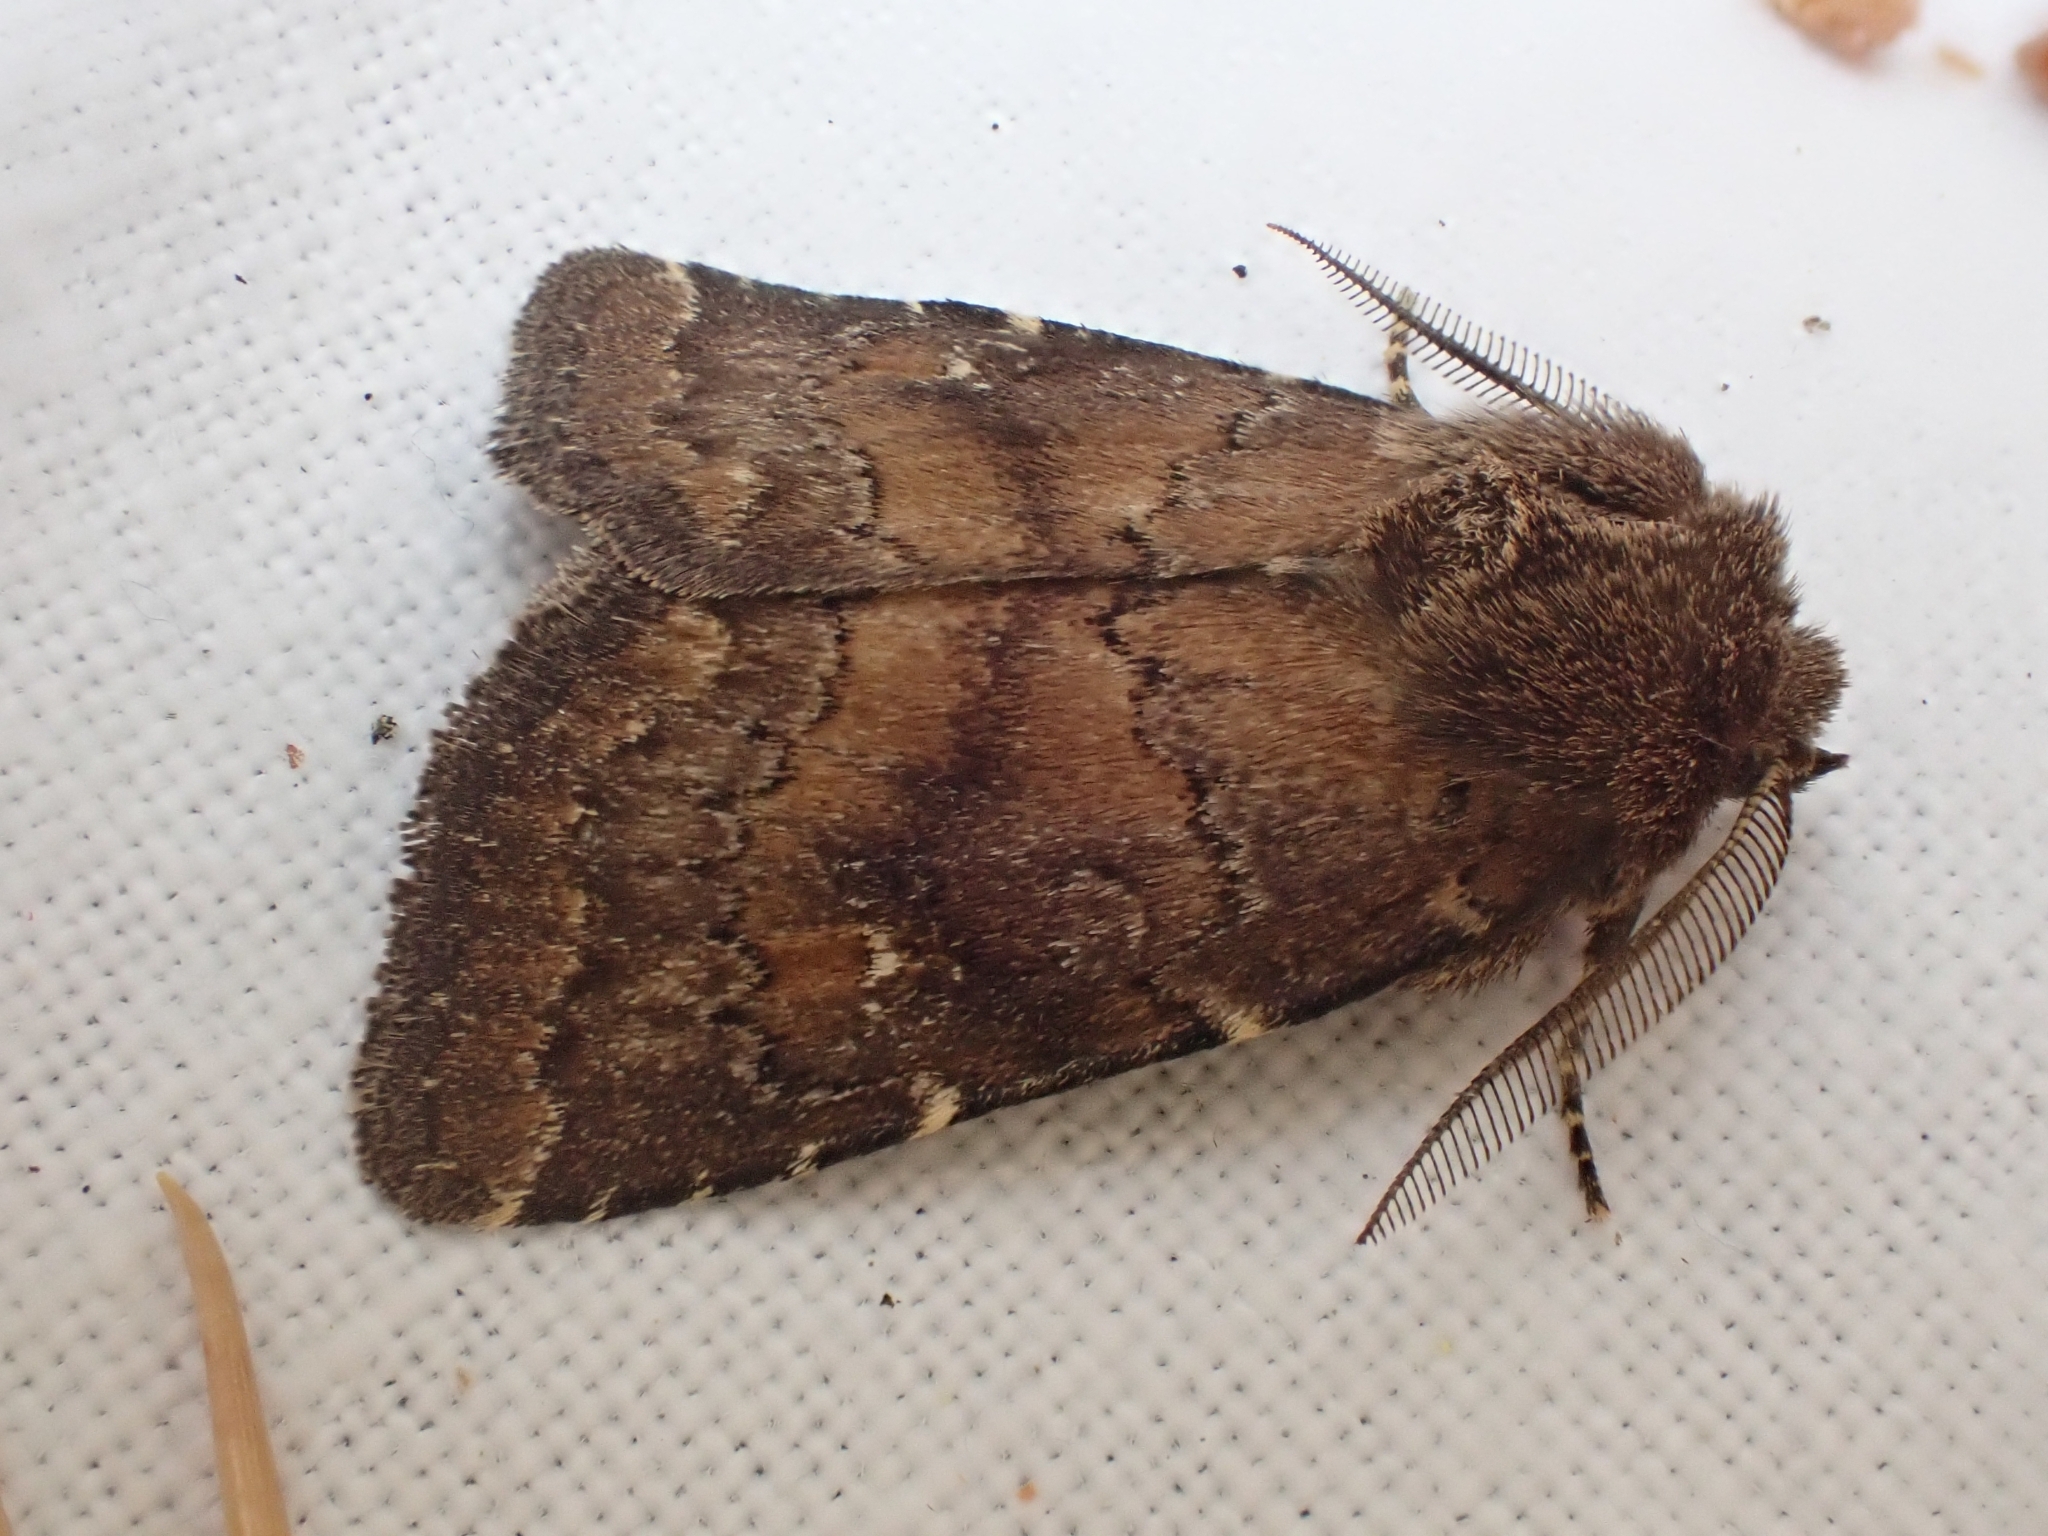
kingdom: Animalia
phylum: Arthropoda
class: Insecta
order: Lepidoptera
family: Noctuidae
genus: Charanyca
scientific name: Charanyca ferruginea
